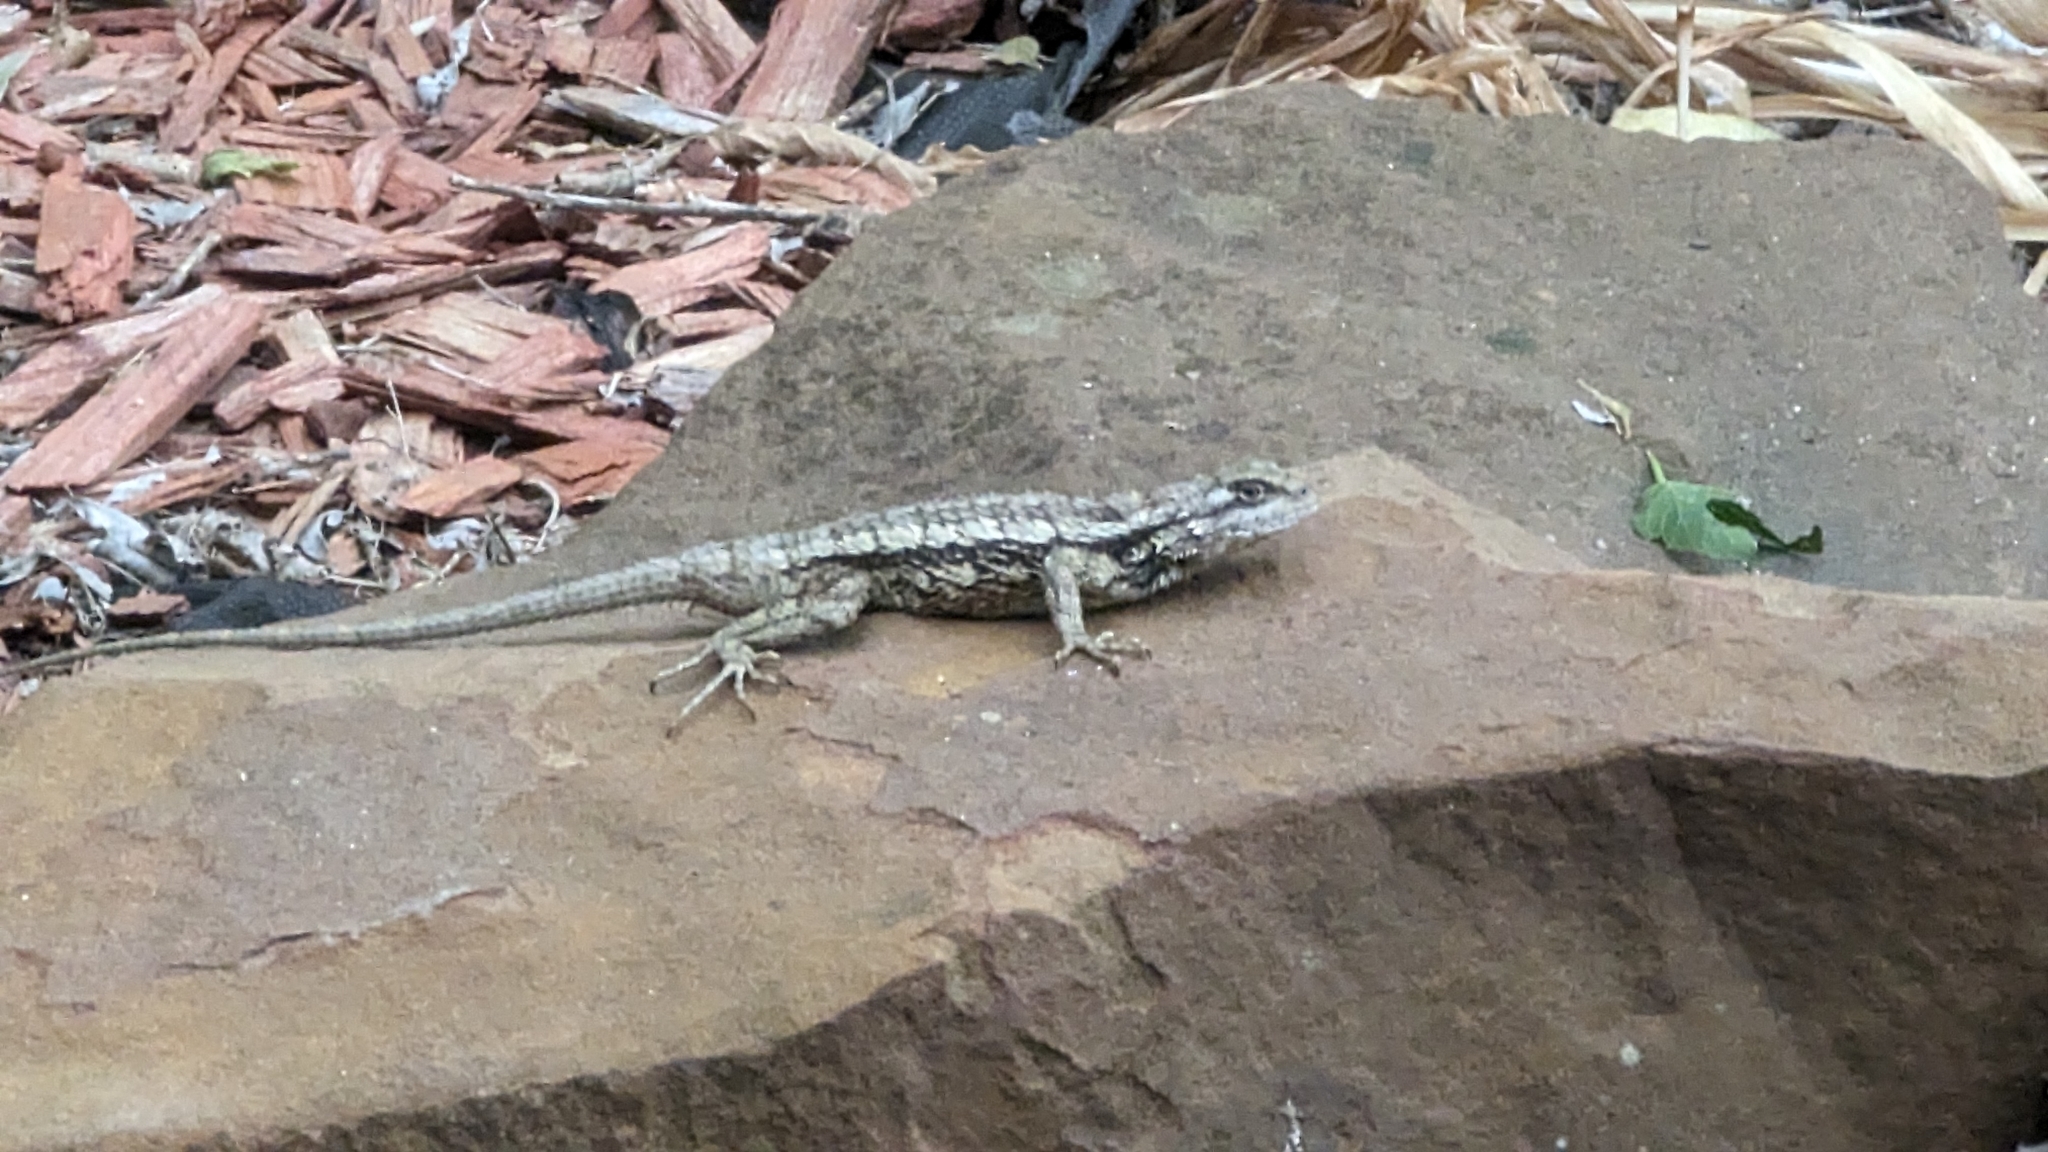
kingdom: Animalia
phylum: Chordata
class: Squamata
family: Phrynosomatidae
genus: Sceloporus
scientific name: Sceloporus olivaceus
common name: Texas spiny lizard
